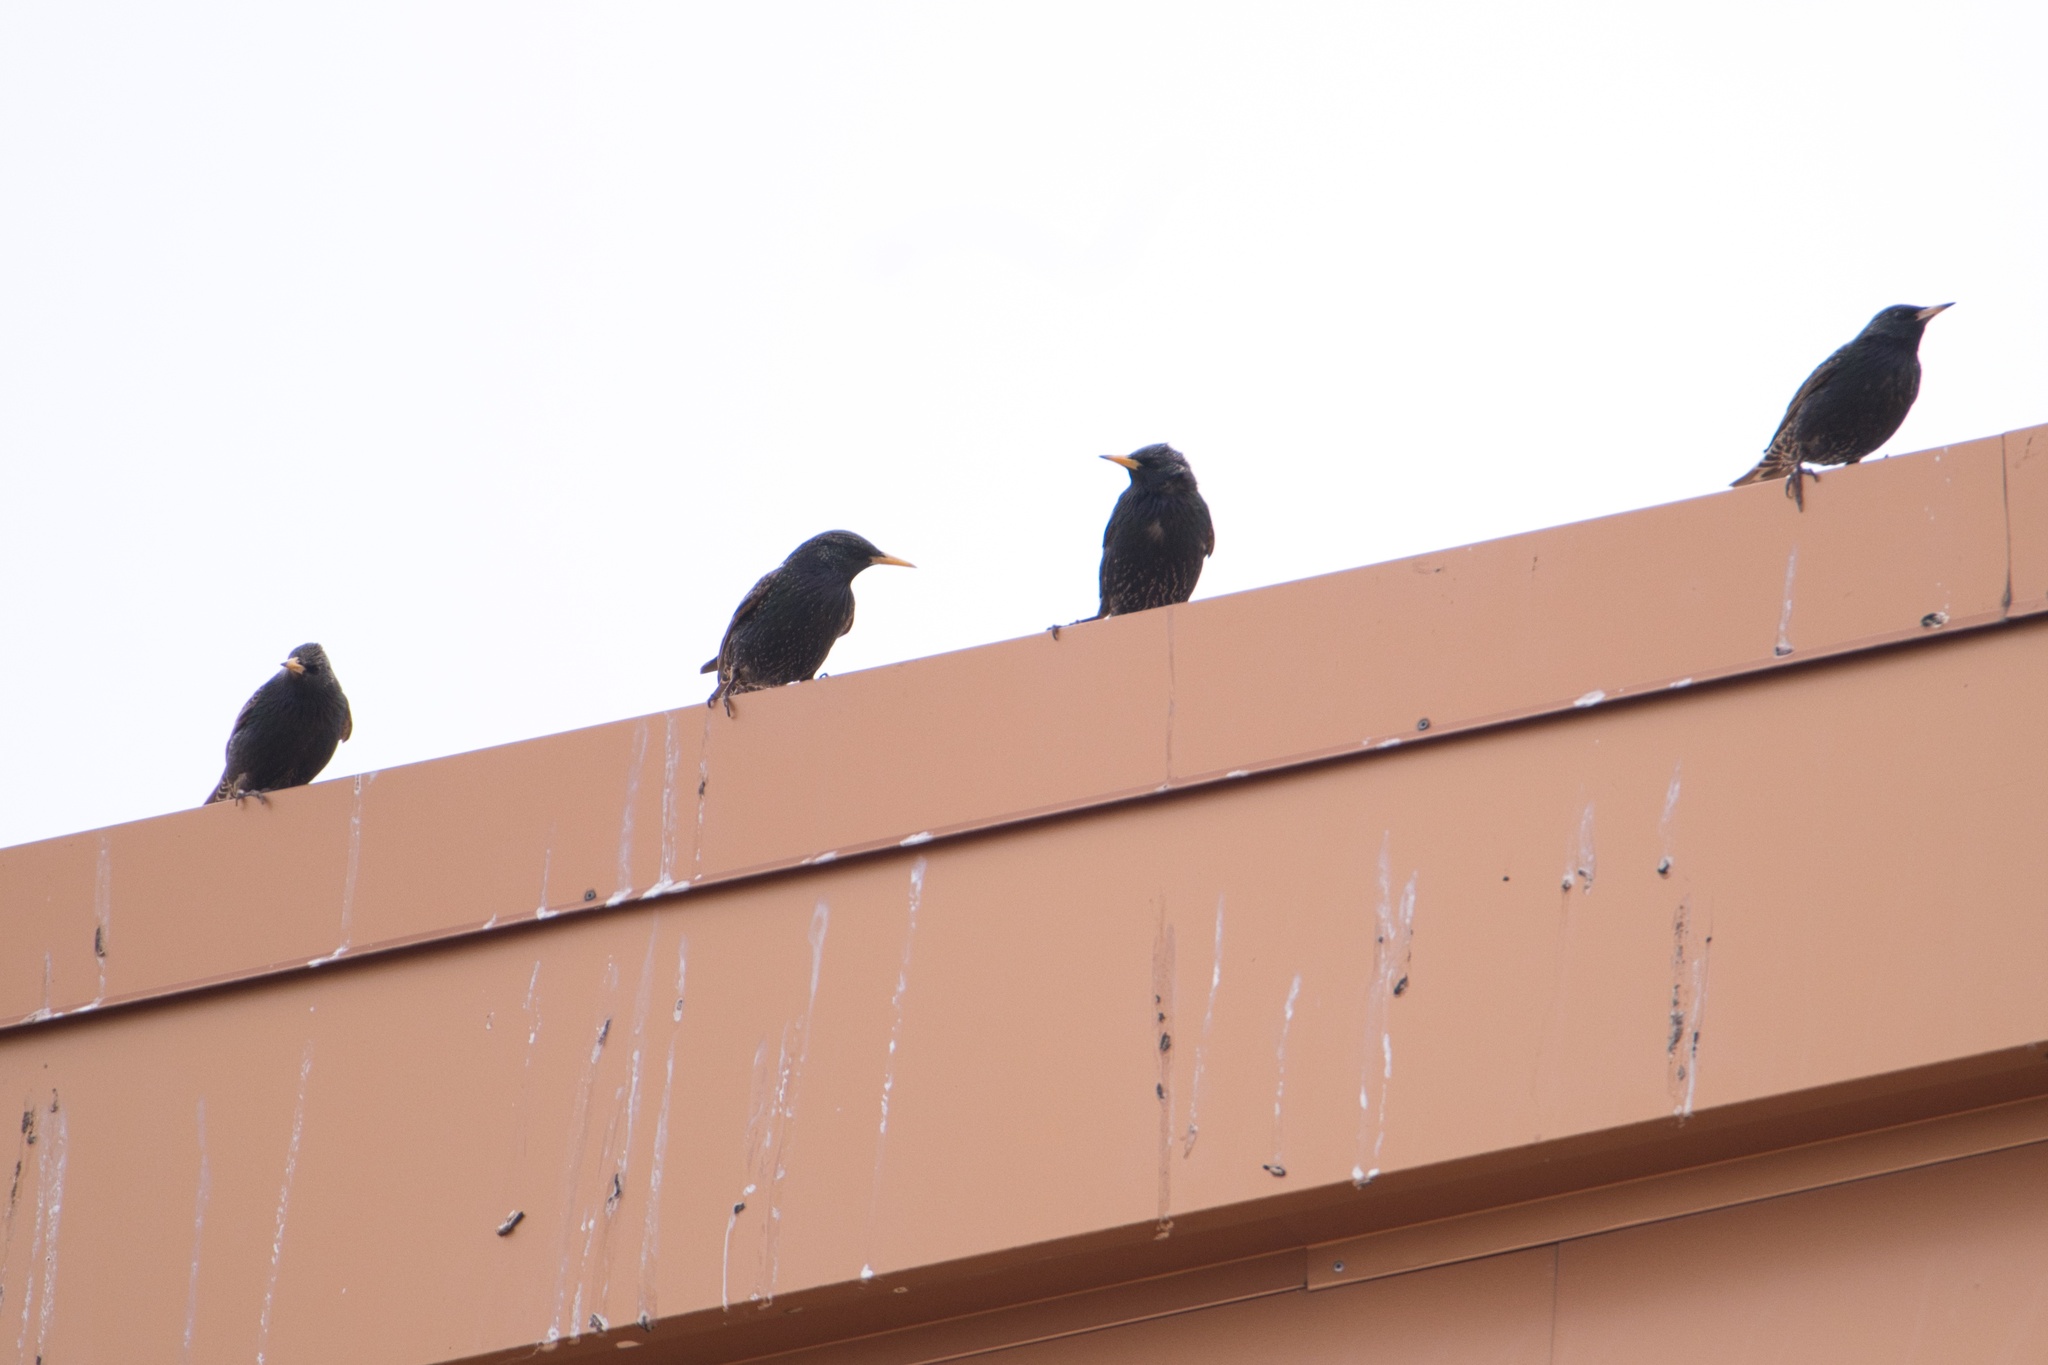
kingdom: Animalia
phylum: Chordata
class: Aves
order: Passeriformes
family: Sturnidae
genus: Sturnus
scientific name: Sturnus vulgaris
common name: Common starling
